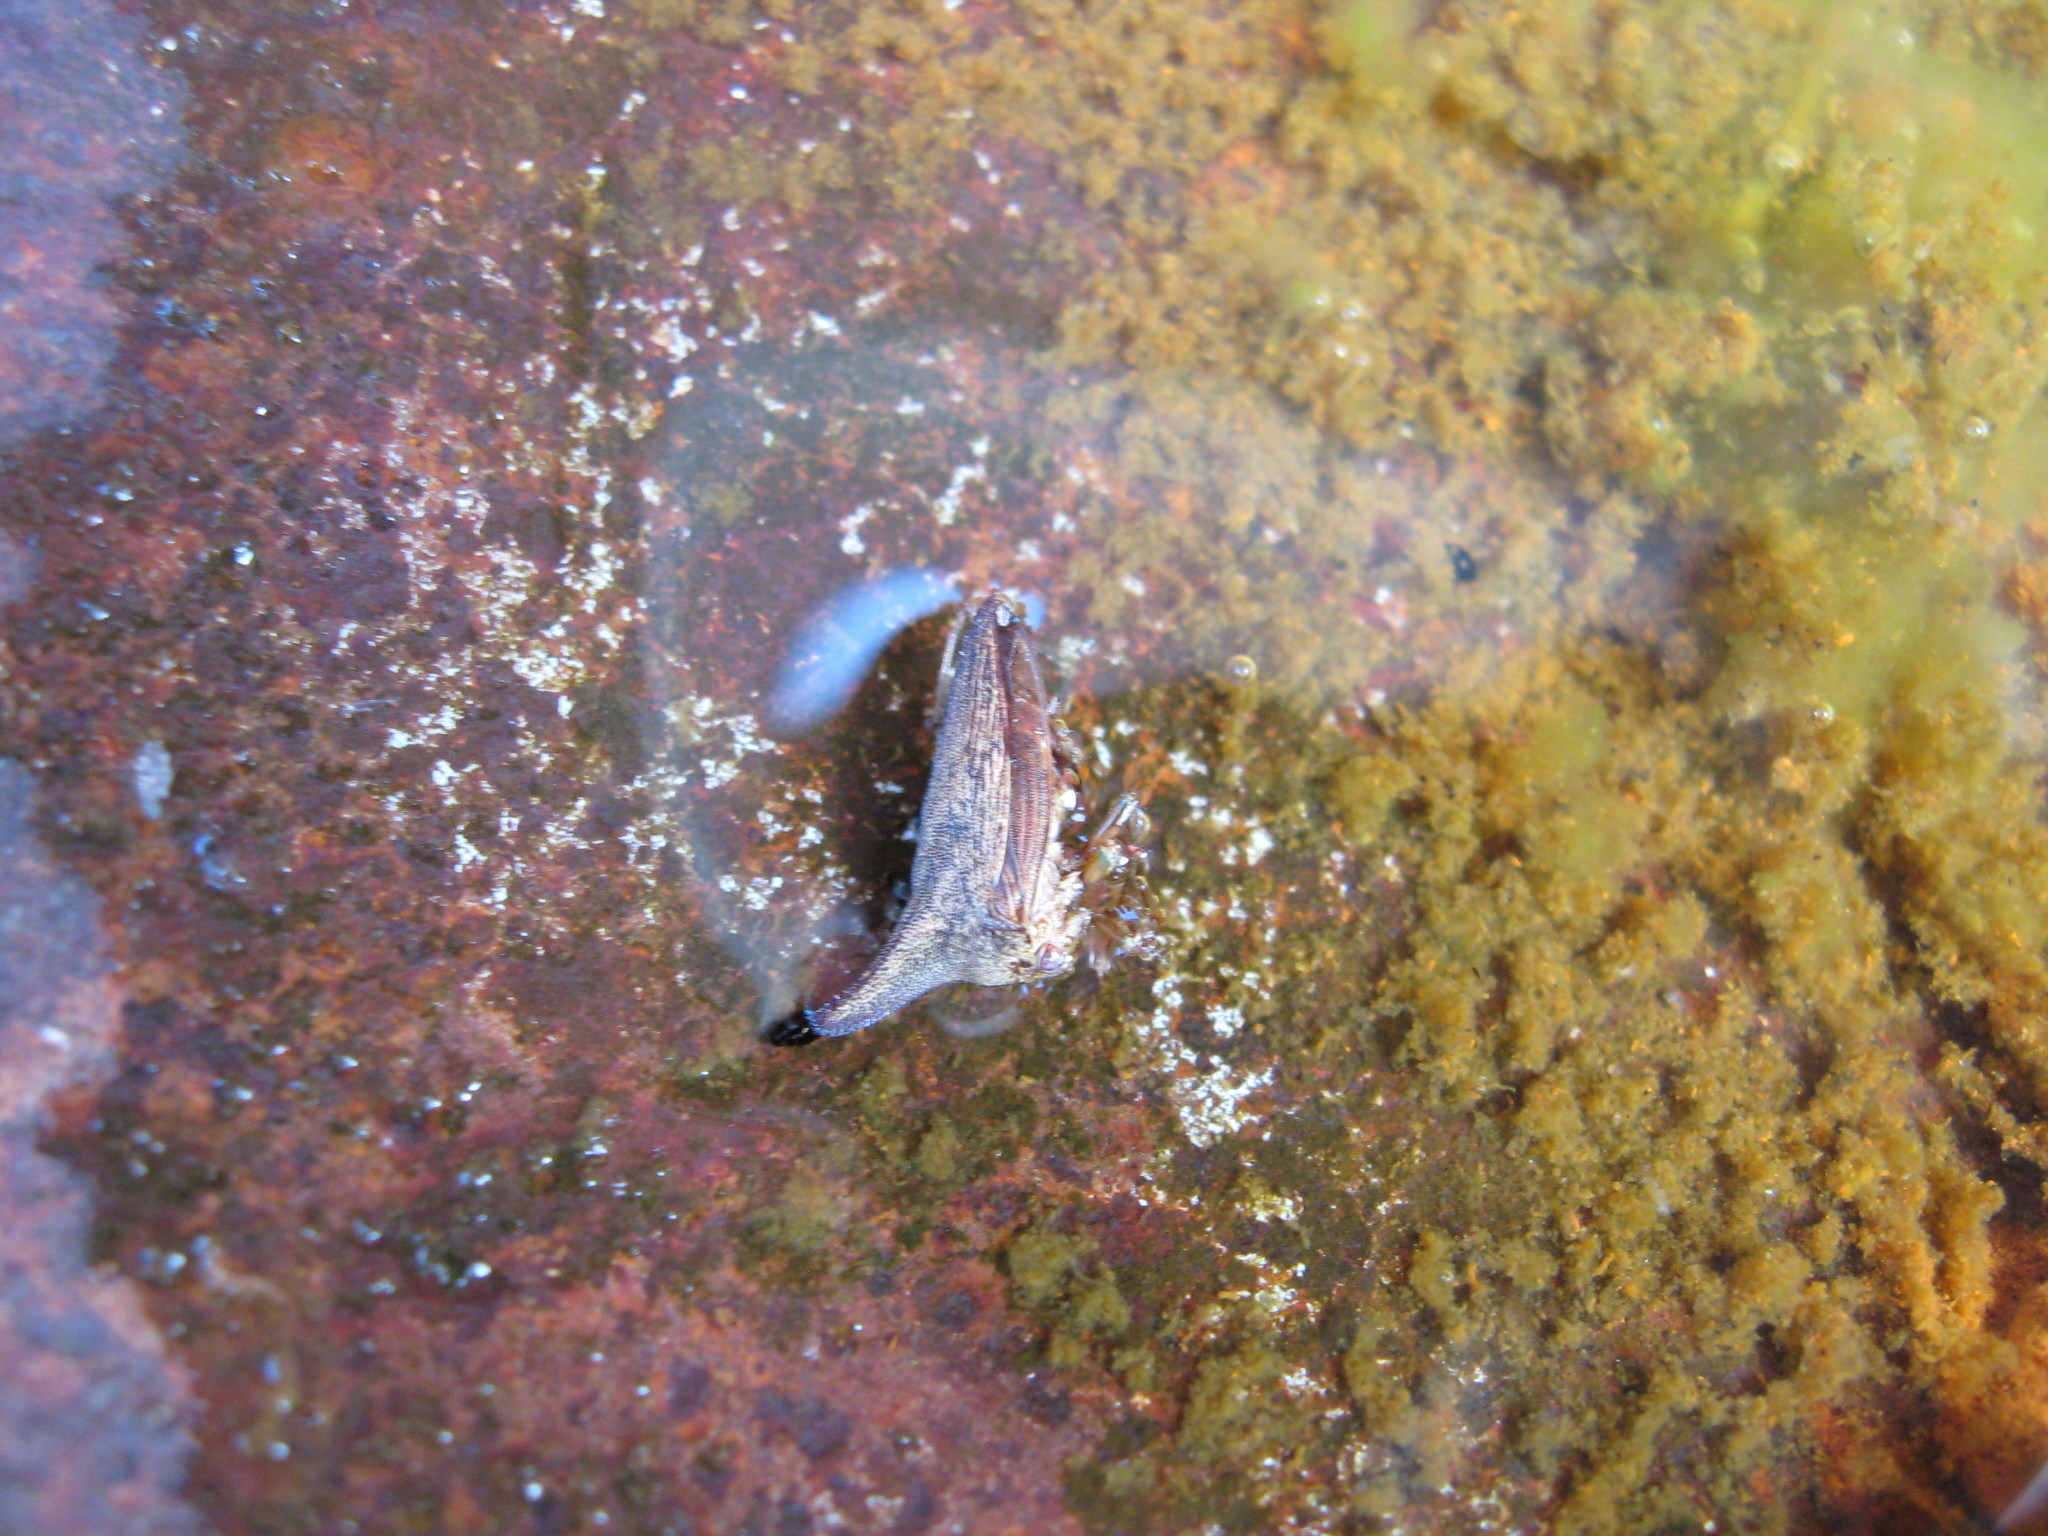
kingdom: Animalia
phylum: Arthropoda
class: Insecta
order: Hemiptera
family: Membracidae
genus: Thelia
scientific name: Thelia bimaculata
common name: Locust treehopper
